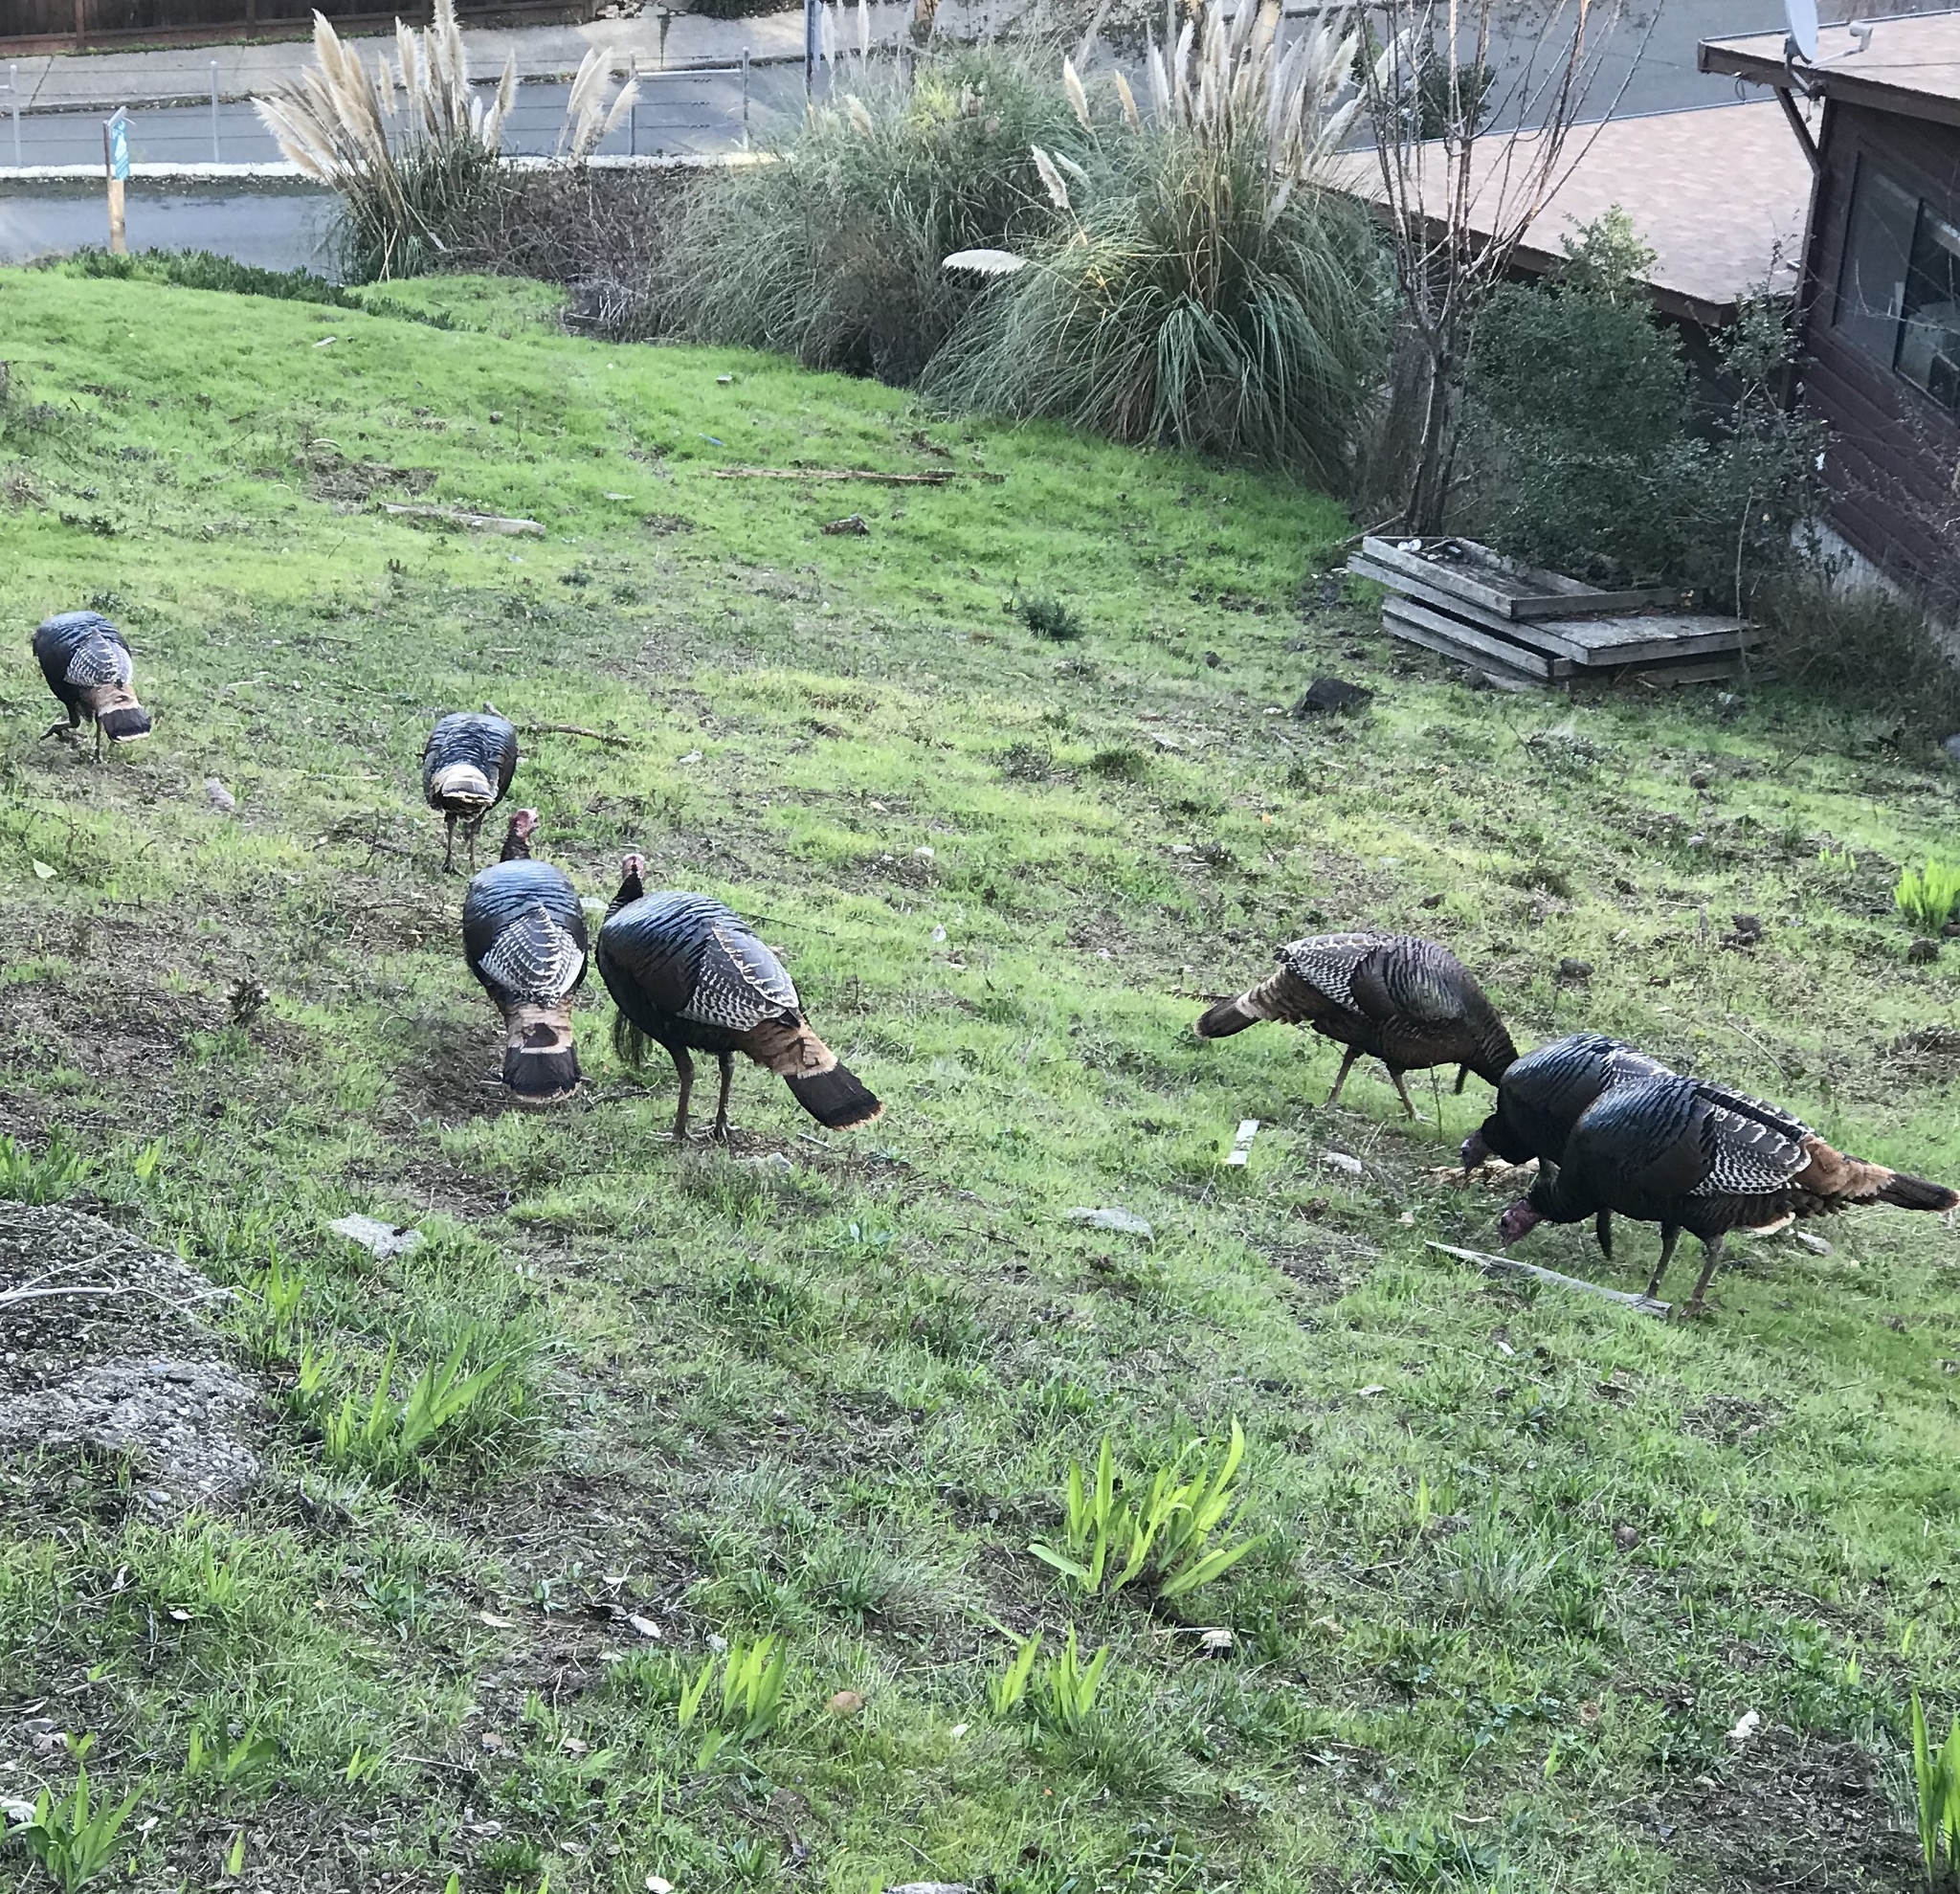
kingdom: Animalia
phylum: Chordata
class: Aves
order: Galliformes
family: Phasianidae
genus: Meleagris
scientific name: Meleagris gallopavo
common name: Wild turkey
